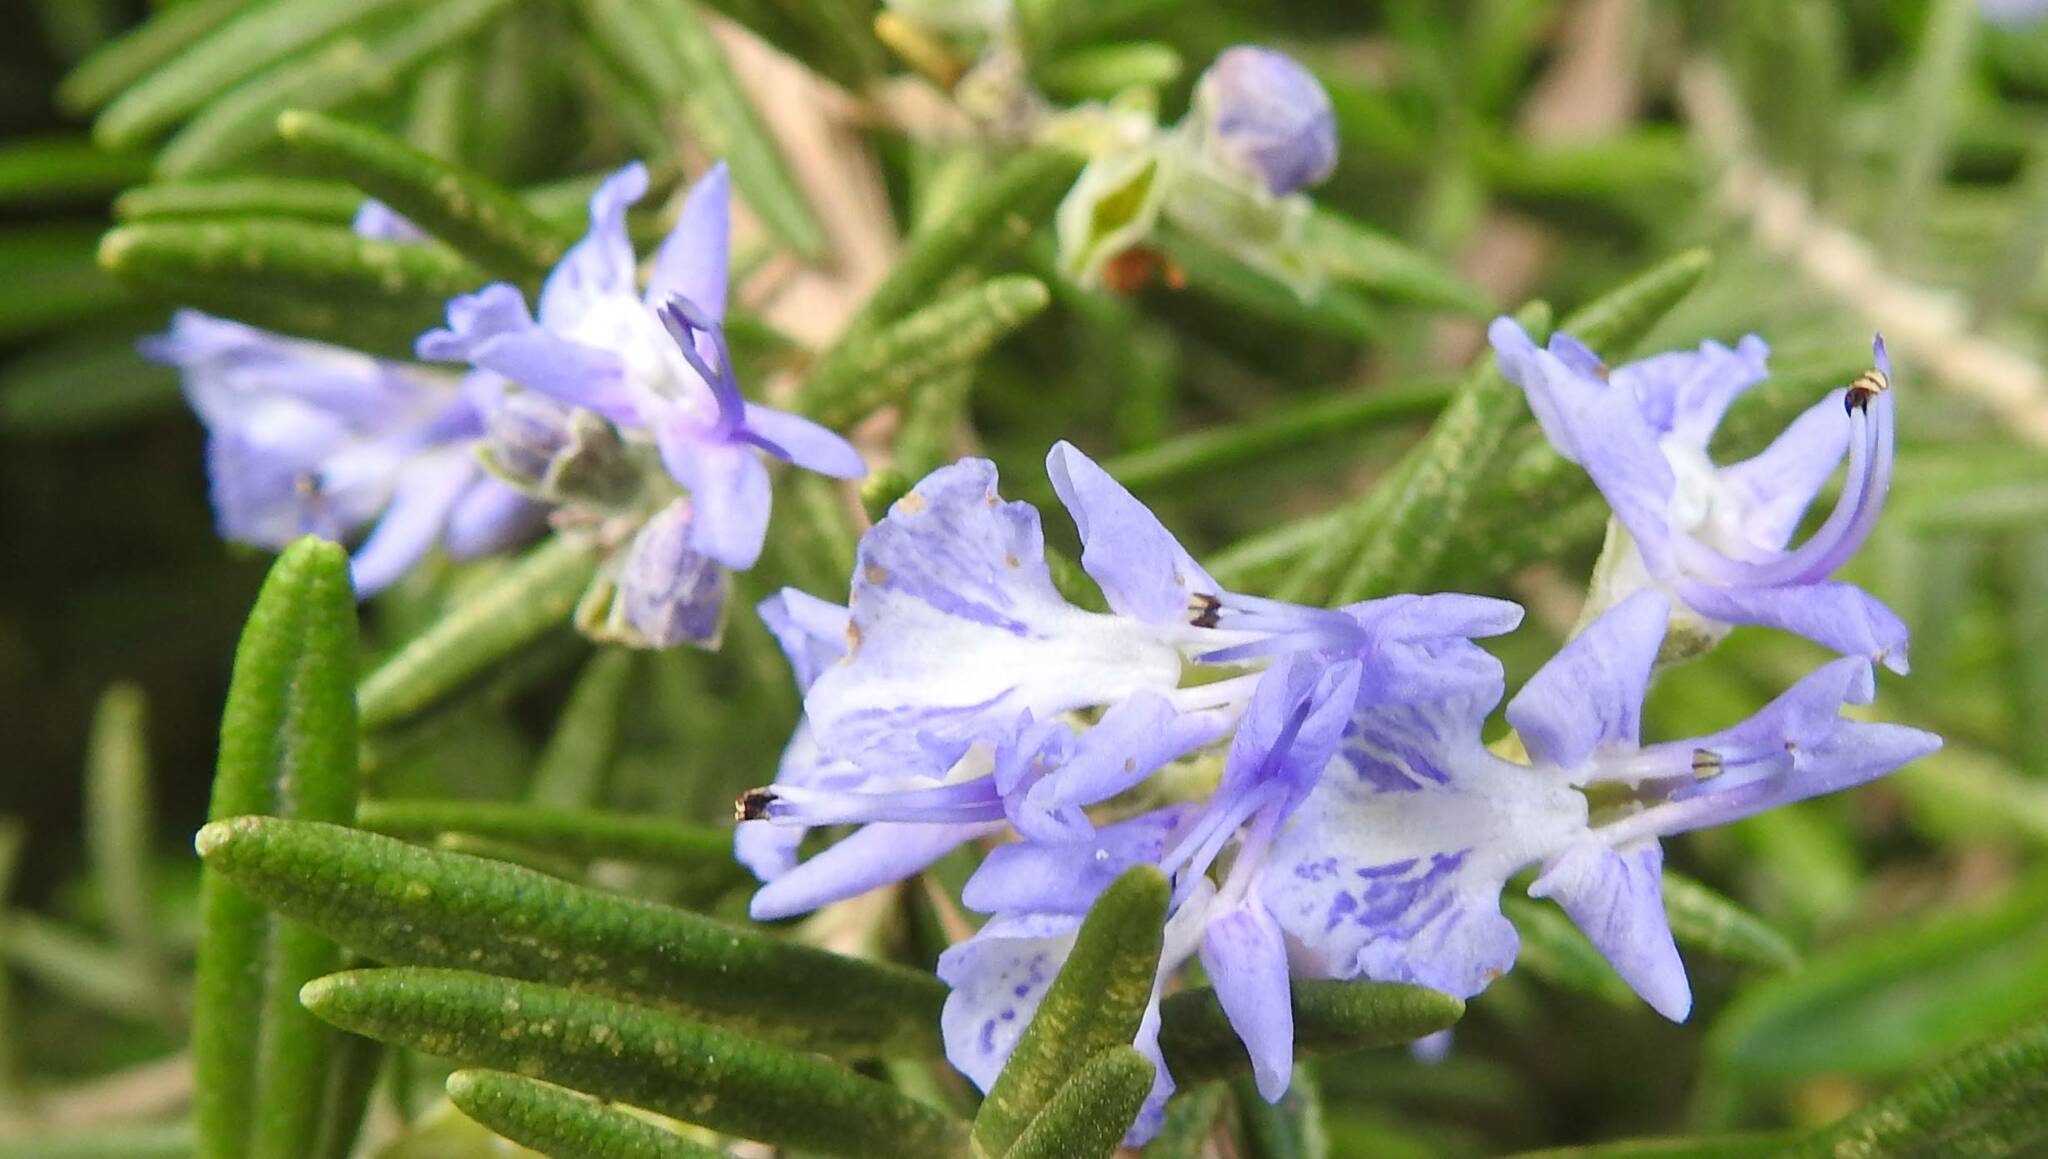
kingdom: Plantae
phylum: Tracheophyta
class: Magnoliopsida
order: Lamiales
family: Lamiaceae
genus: Salvia
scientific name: Salvia rosmarinus
